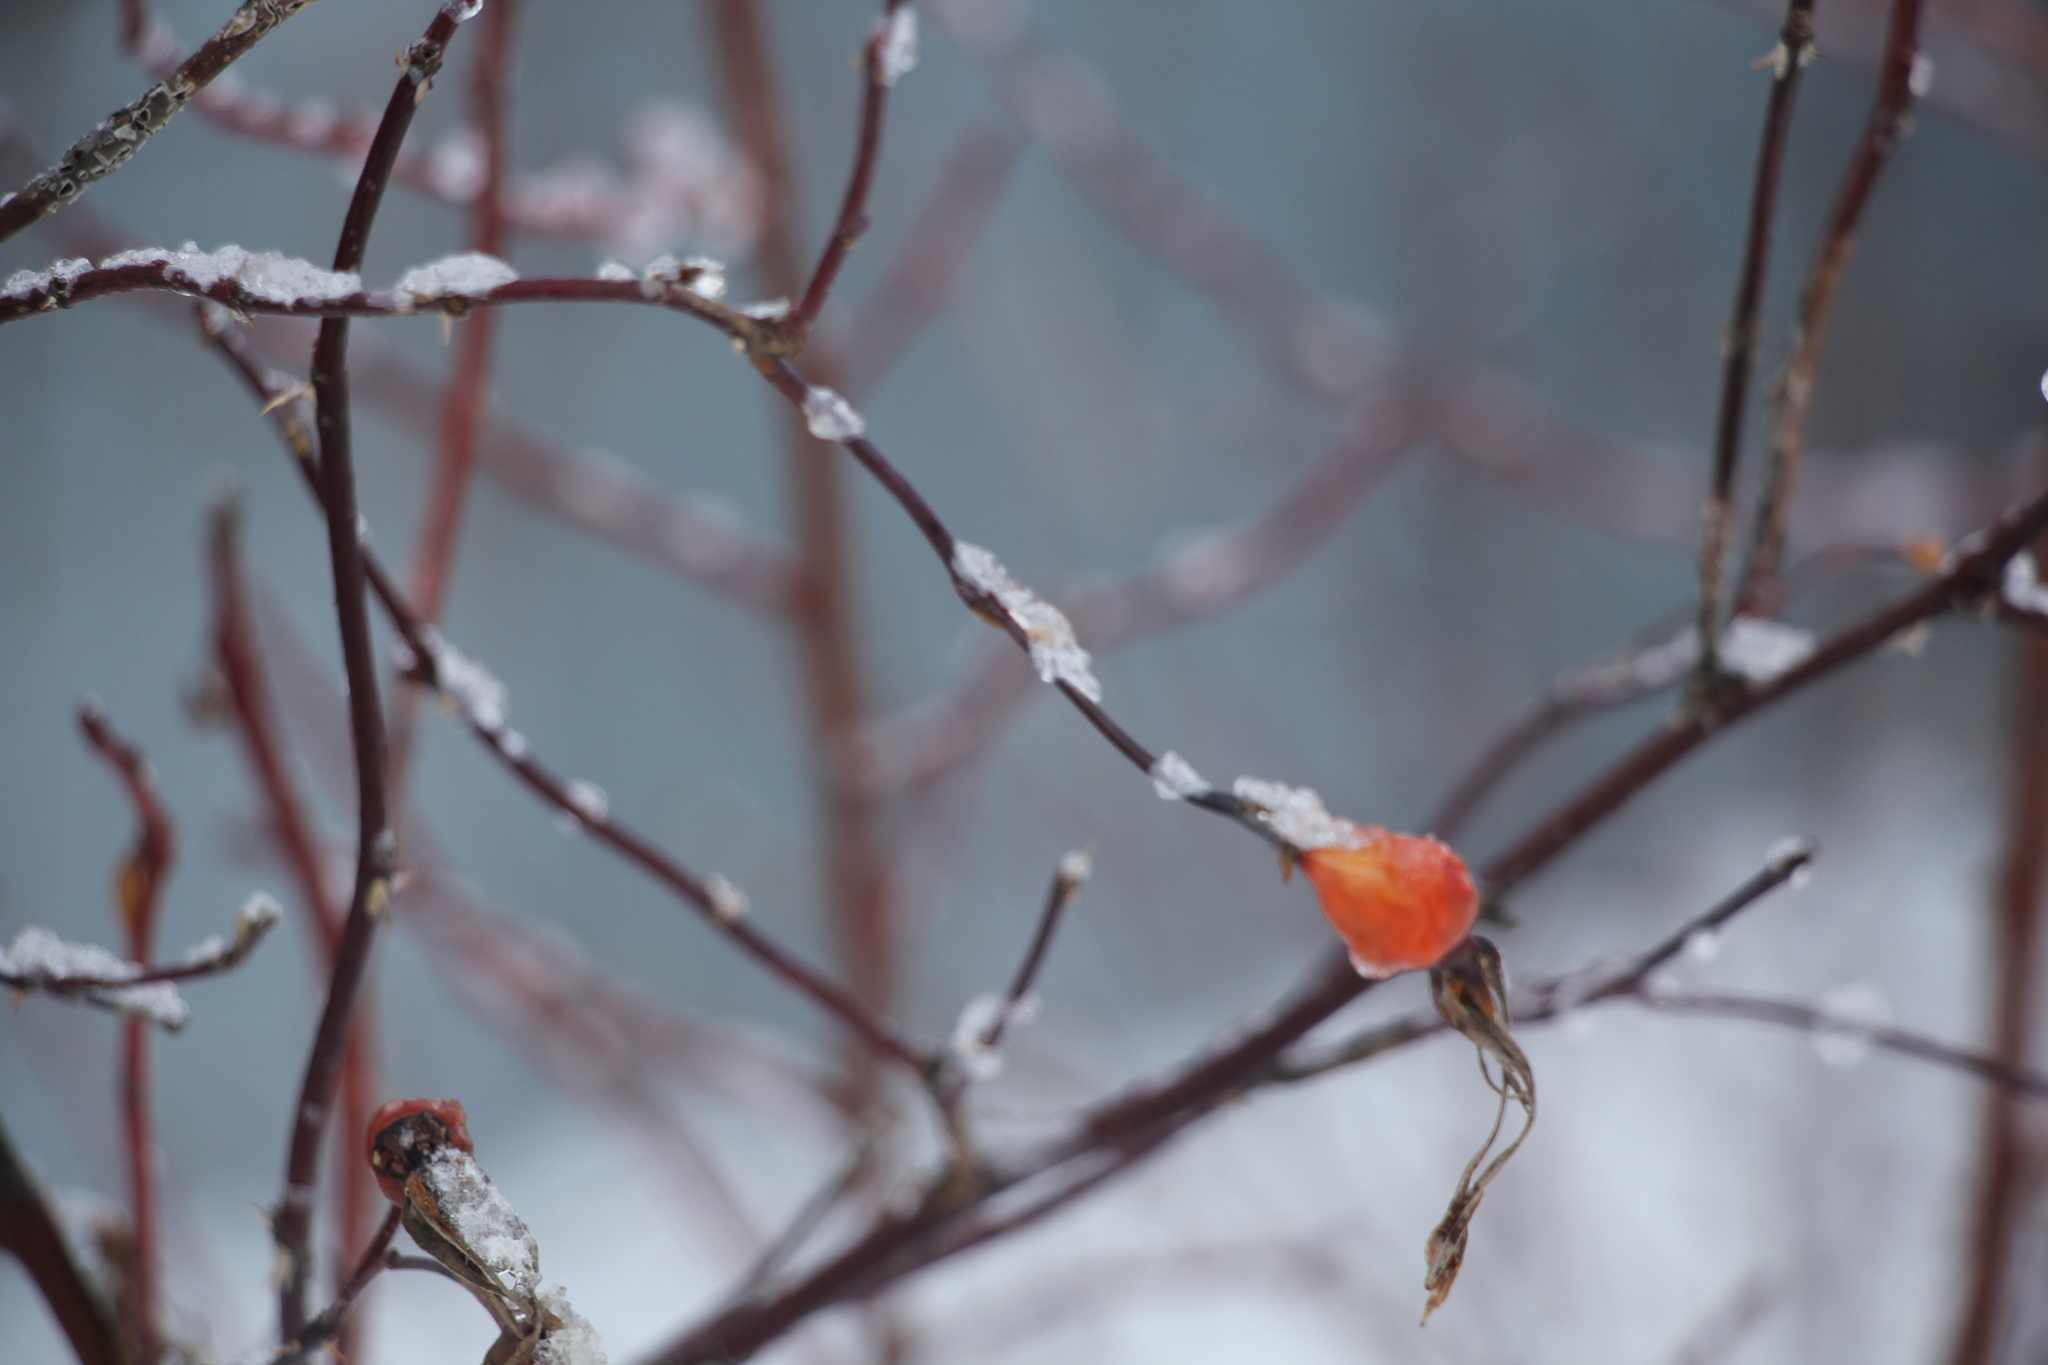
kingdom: Plantae
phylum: Tracheophyta
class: Magnoliopsida
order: Rosales
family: Rosaceae
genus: Rosa
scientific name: Rosa majalis
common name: Cinnamon rose
